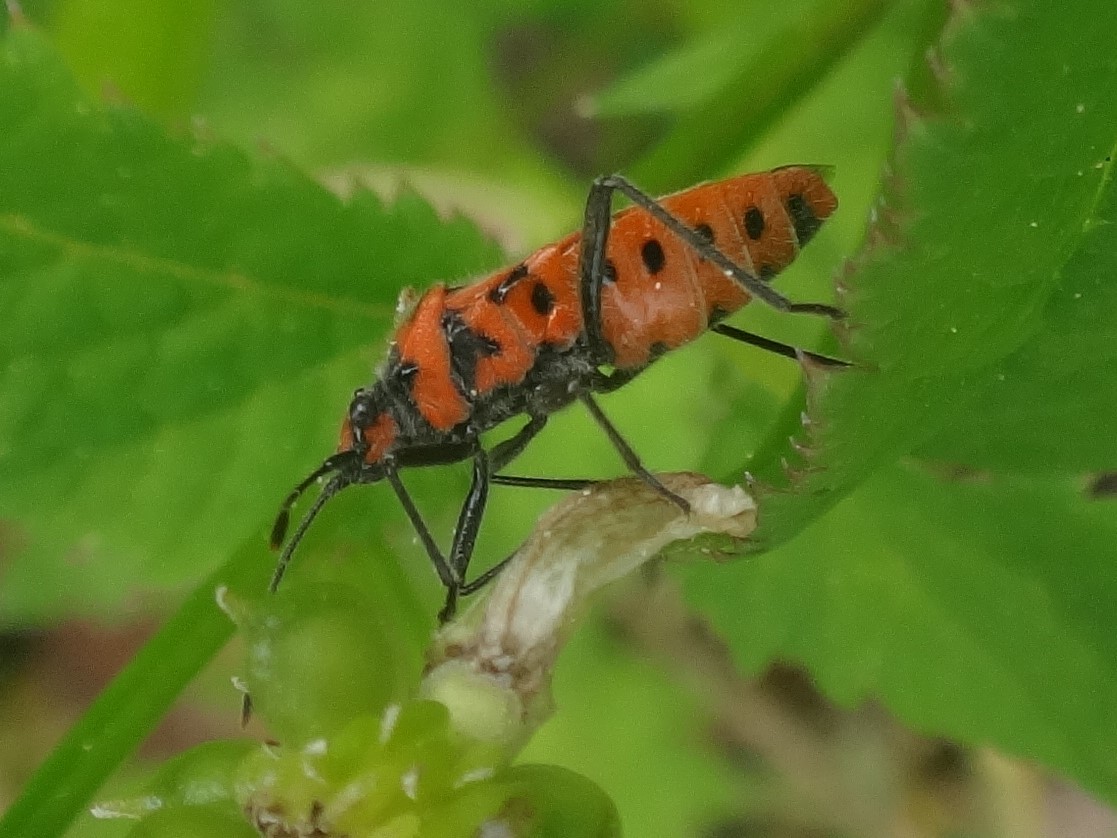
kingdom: Animalia
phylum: Arthropoda
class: Insecta
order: Hemiptera
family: Rhopalidae
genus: Corizus
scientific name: Corizus hyoscyami
